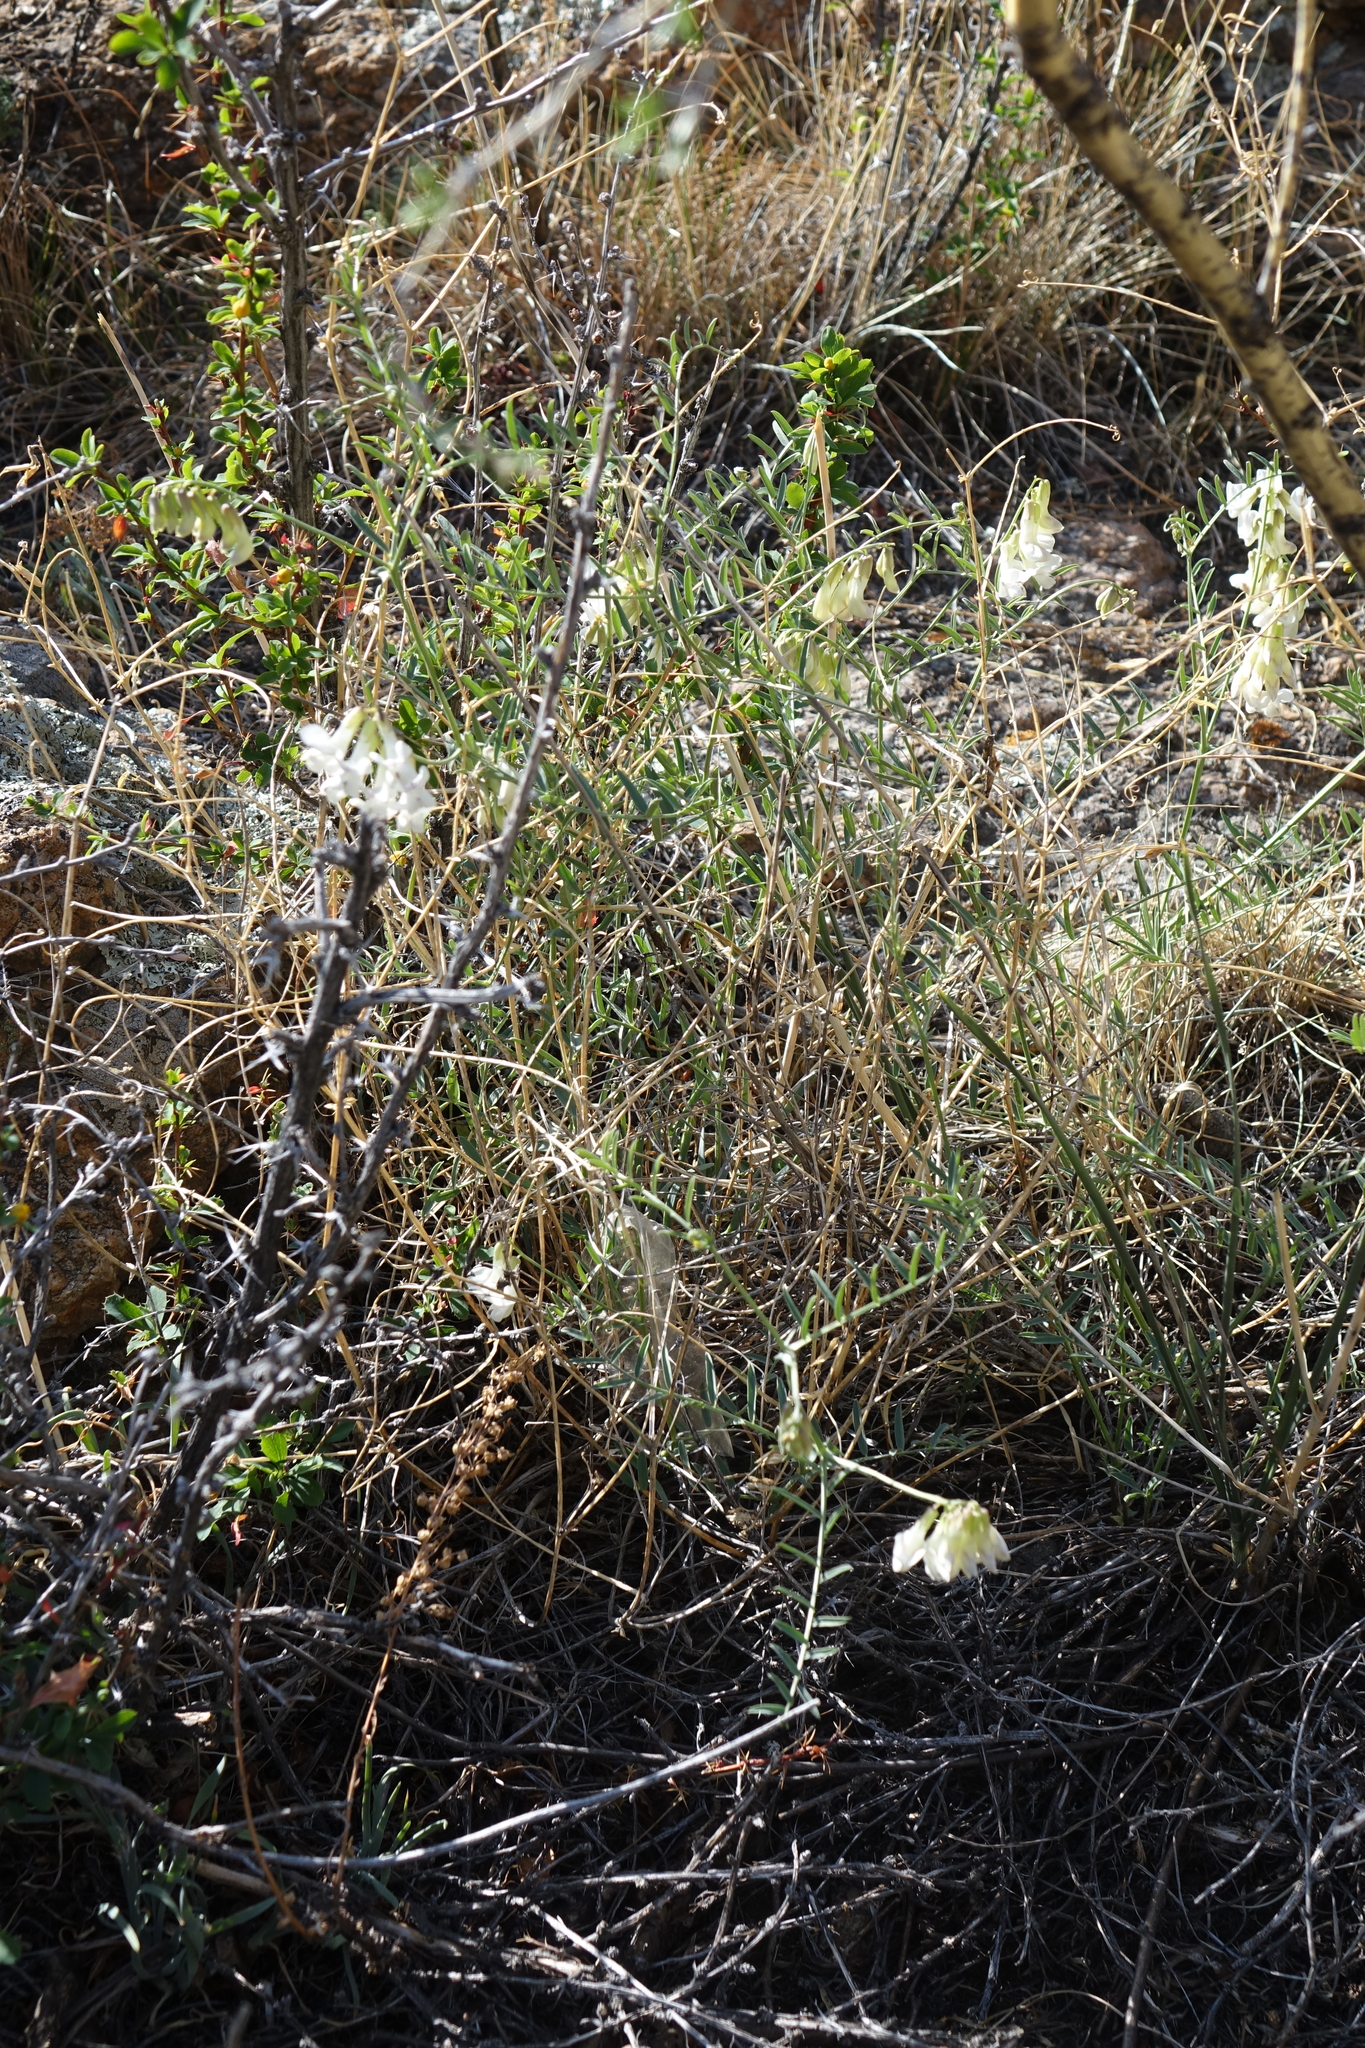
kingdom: Plantae
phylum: Tracheophyta
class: Magnoliopsida
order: Fabales
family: Fabaceae
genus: Vicia
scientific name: Vicia costata
